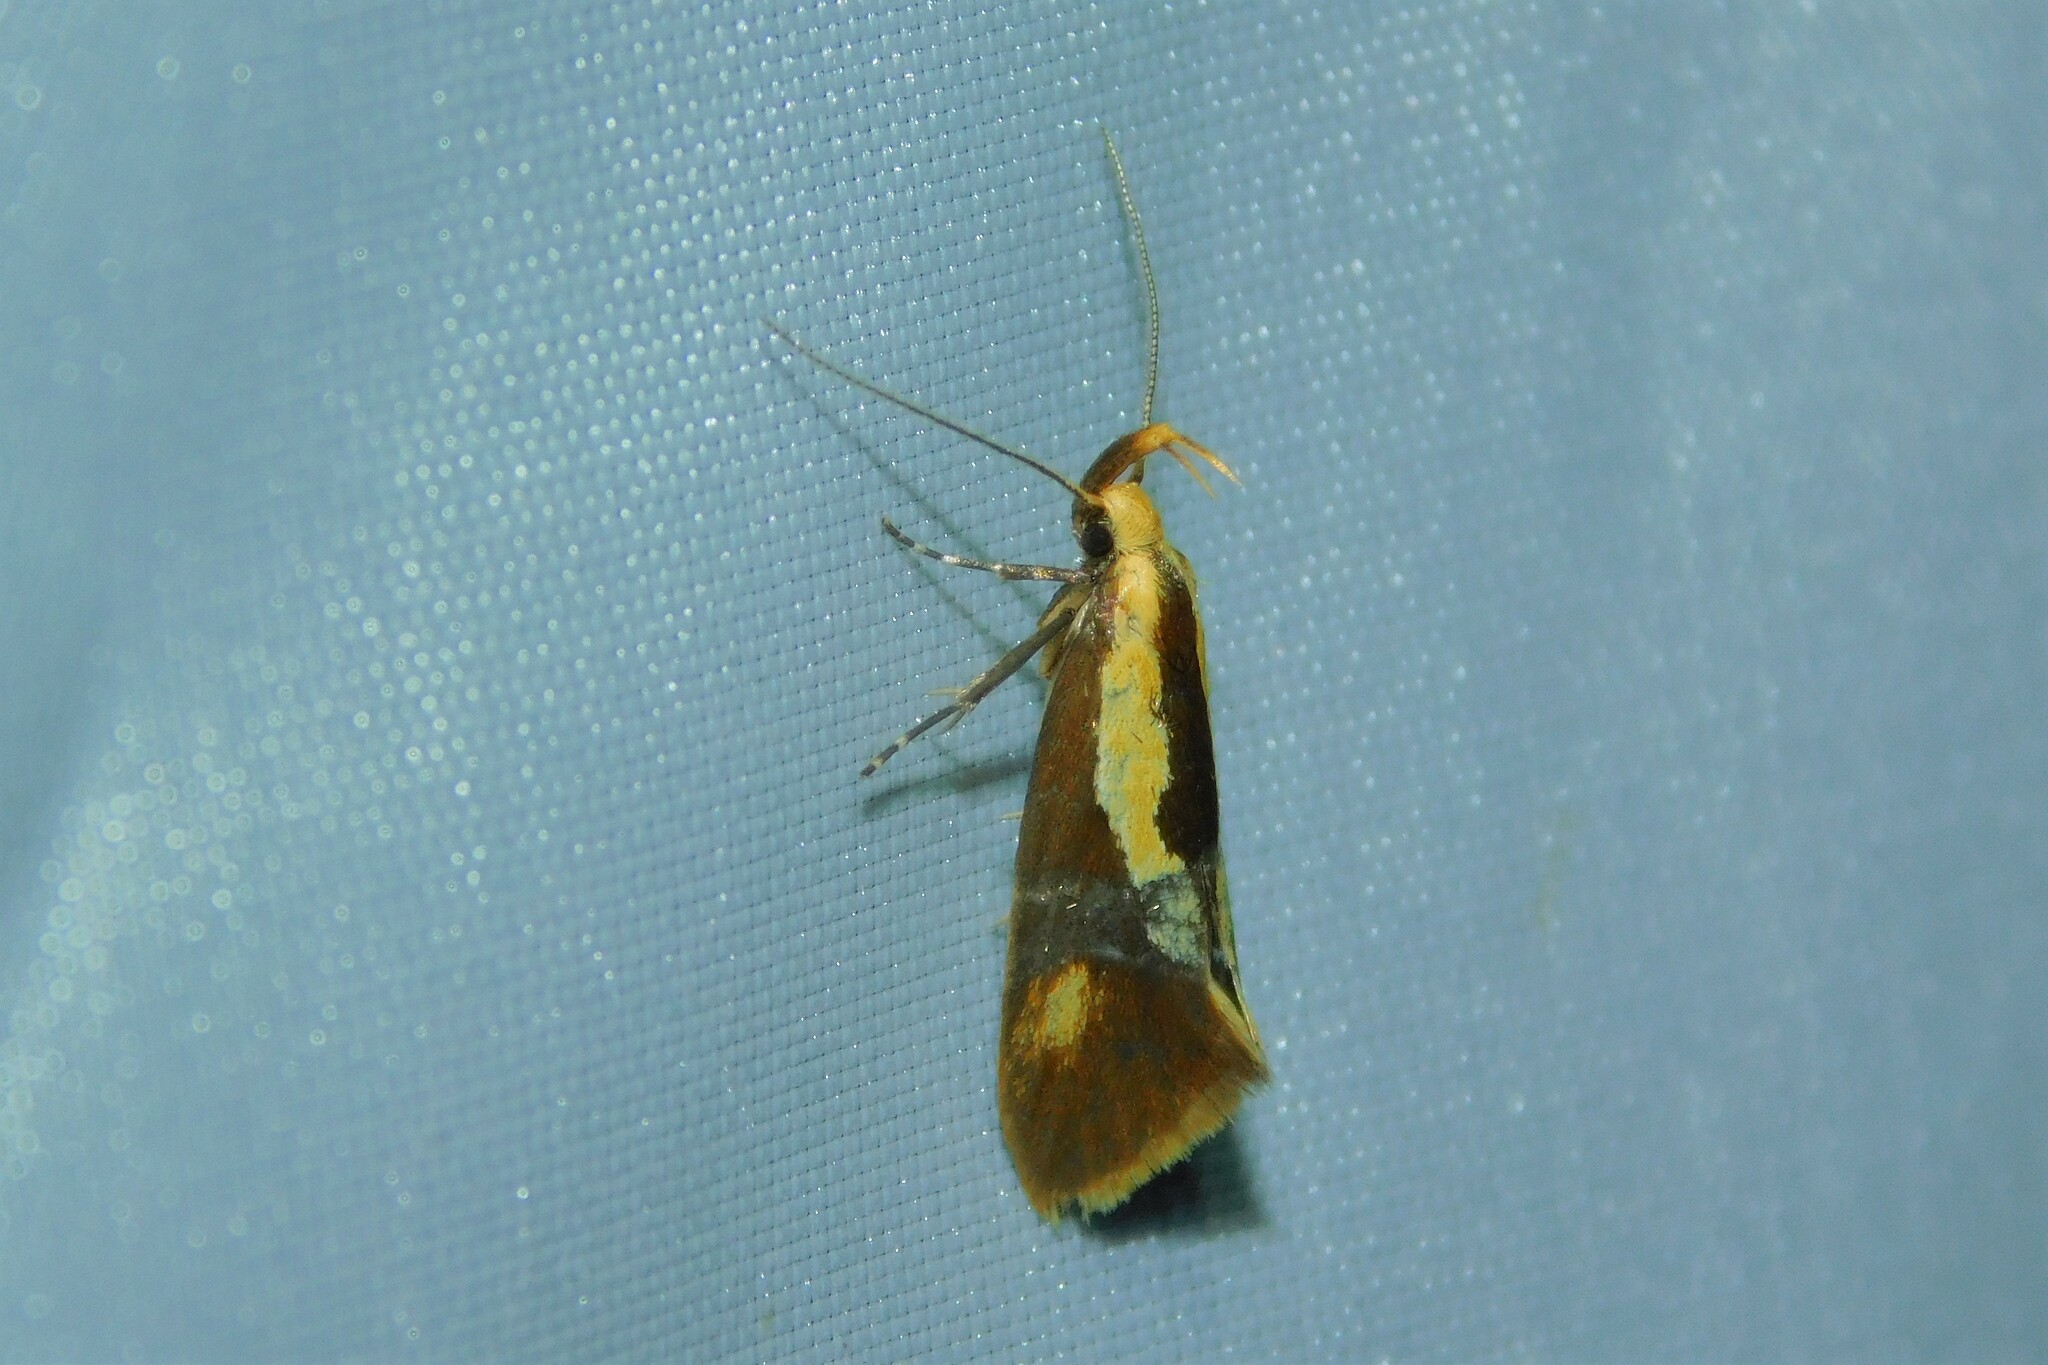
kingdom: Animalia
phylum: Arthropoda
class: Insecta
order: Lepidoptera
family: Oecophoridae
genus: Harpella
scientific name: Harpella forficella
